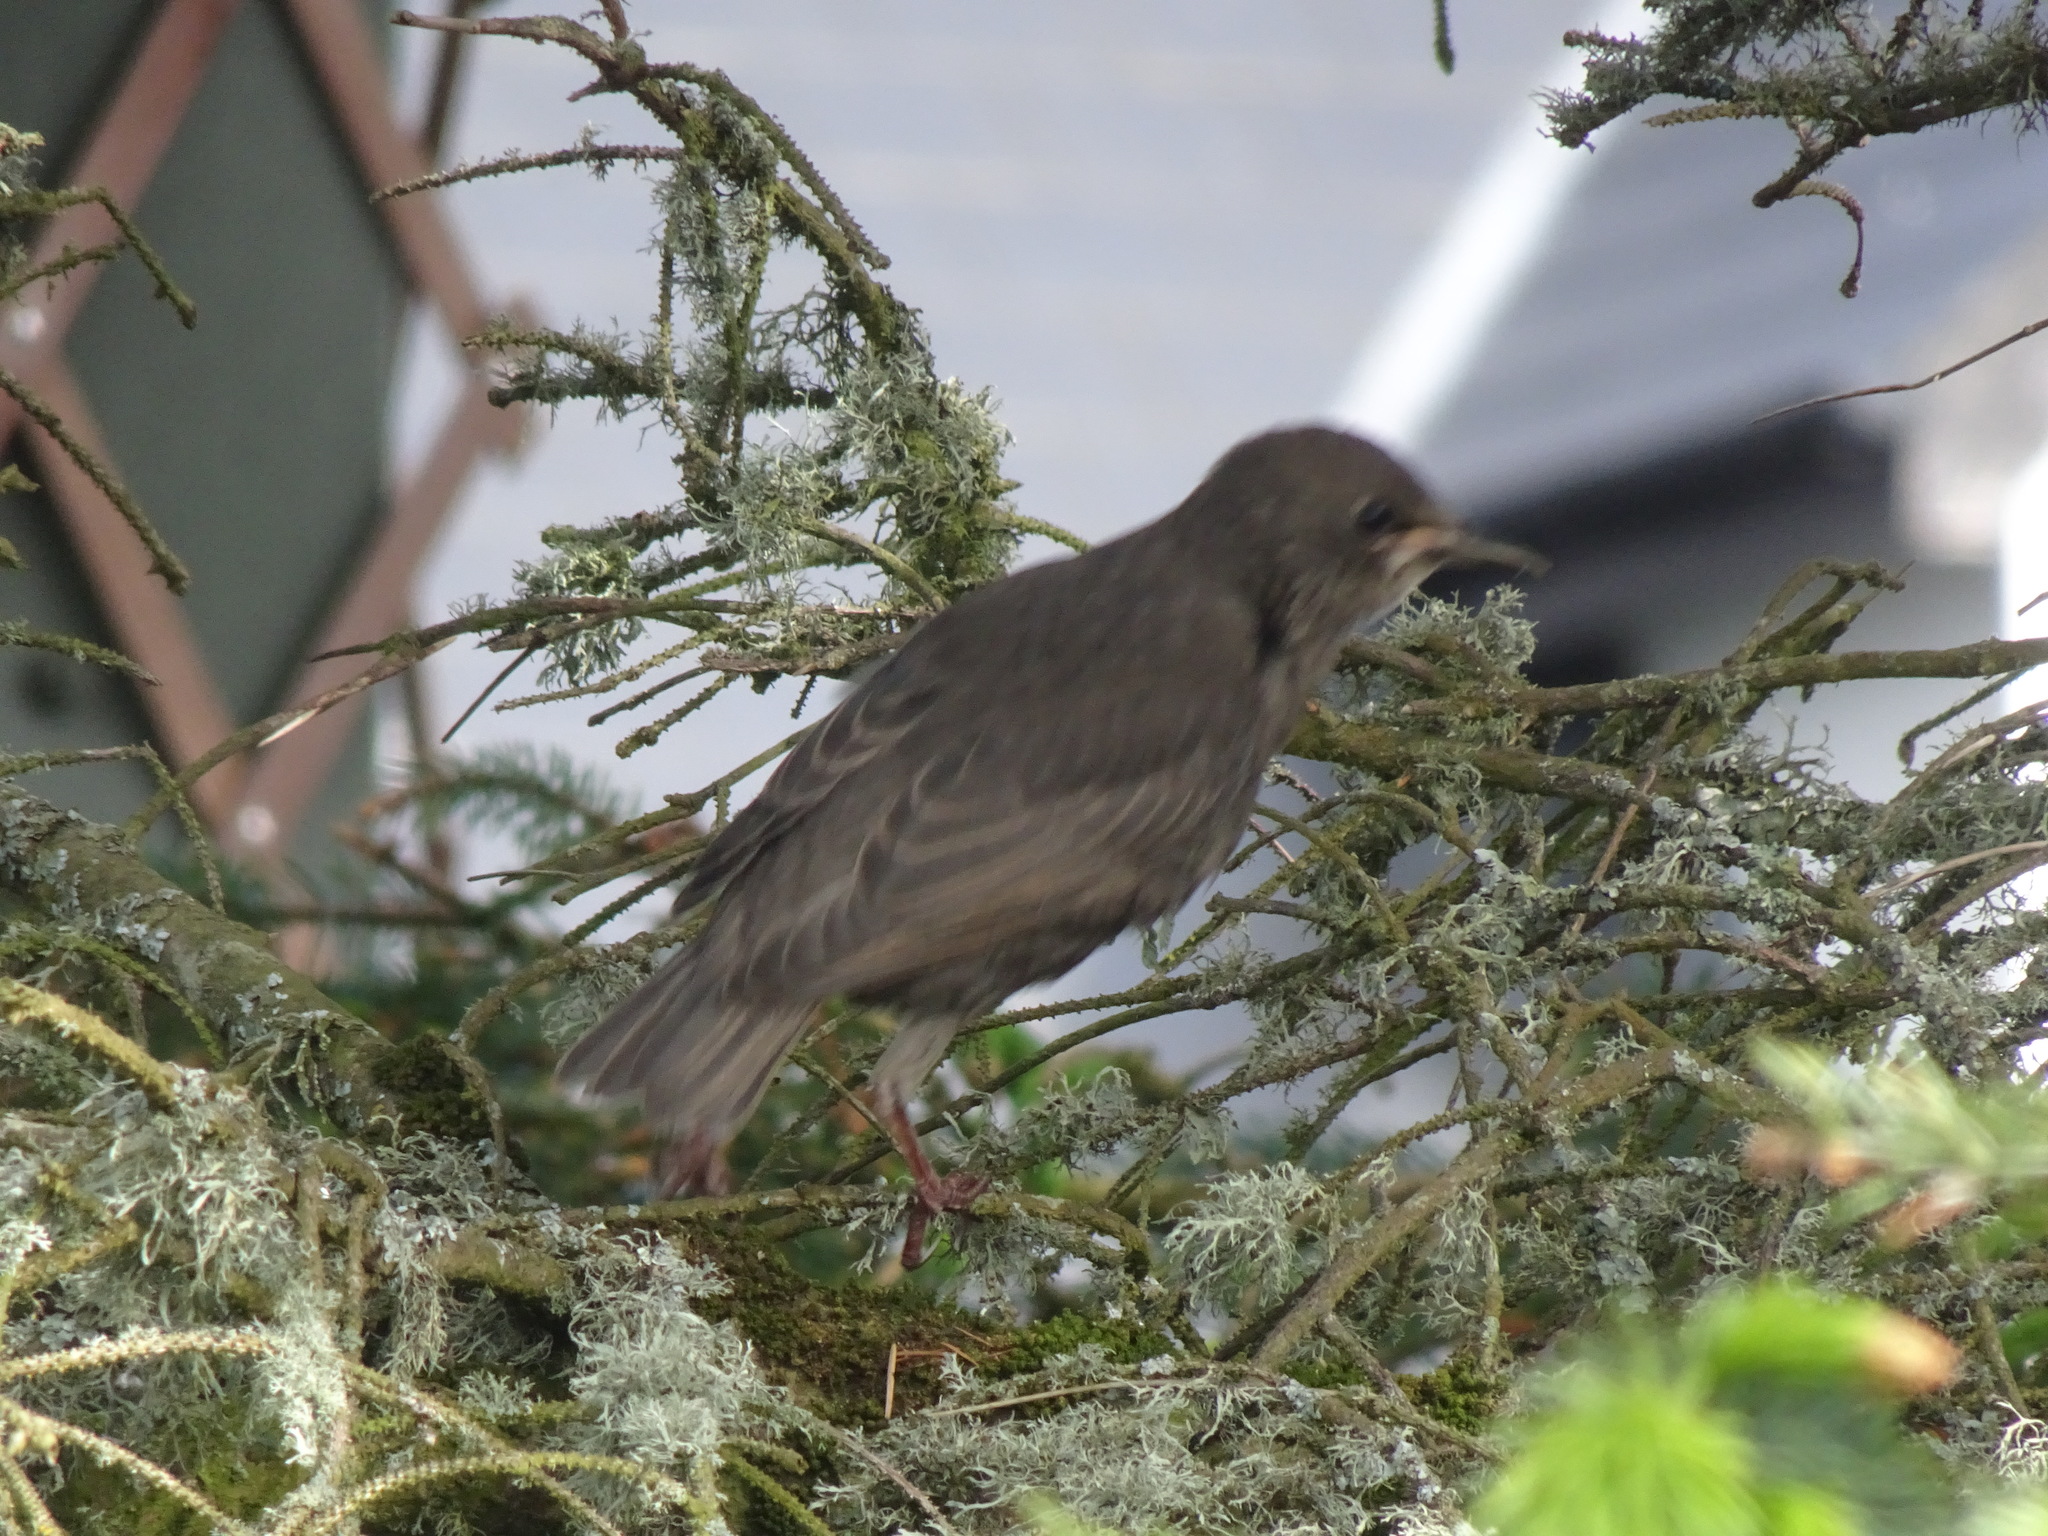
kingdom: Animalia
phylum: Chordata
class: Aves
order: Passeriformes
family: Sturnidae
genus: Sturnus
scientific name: Sturnus vulgaris
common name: Common starling
